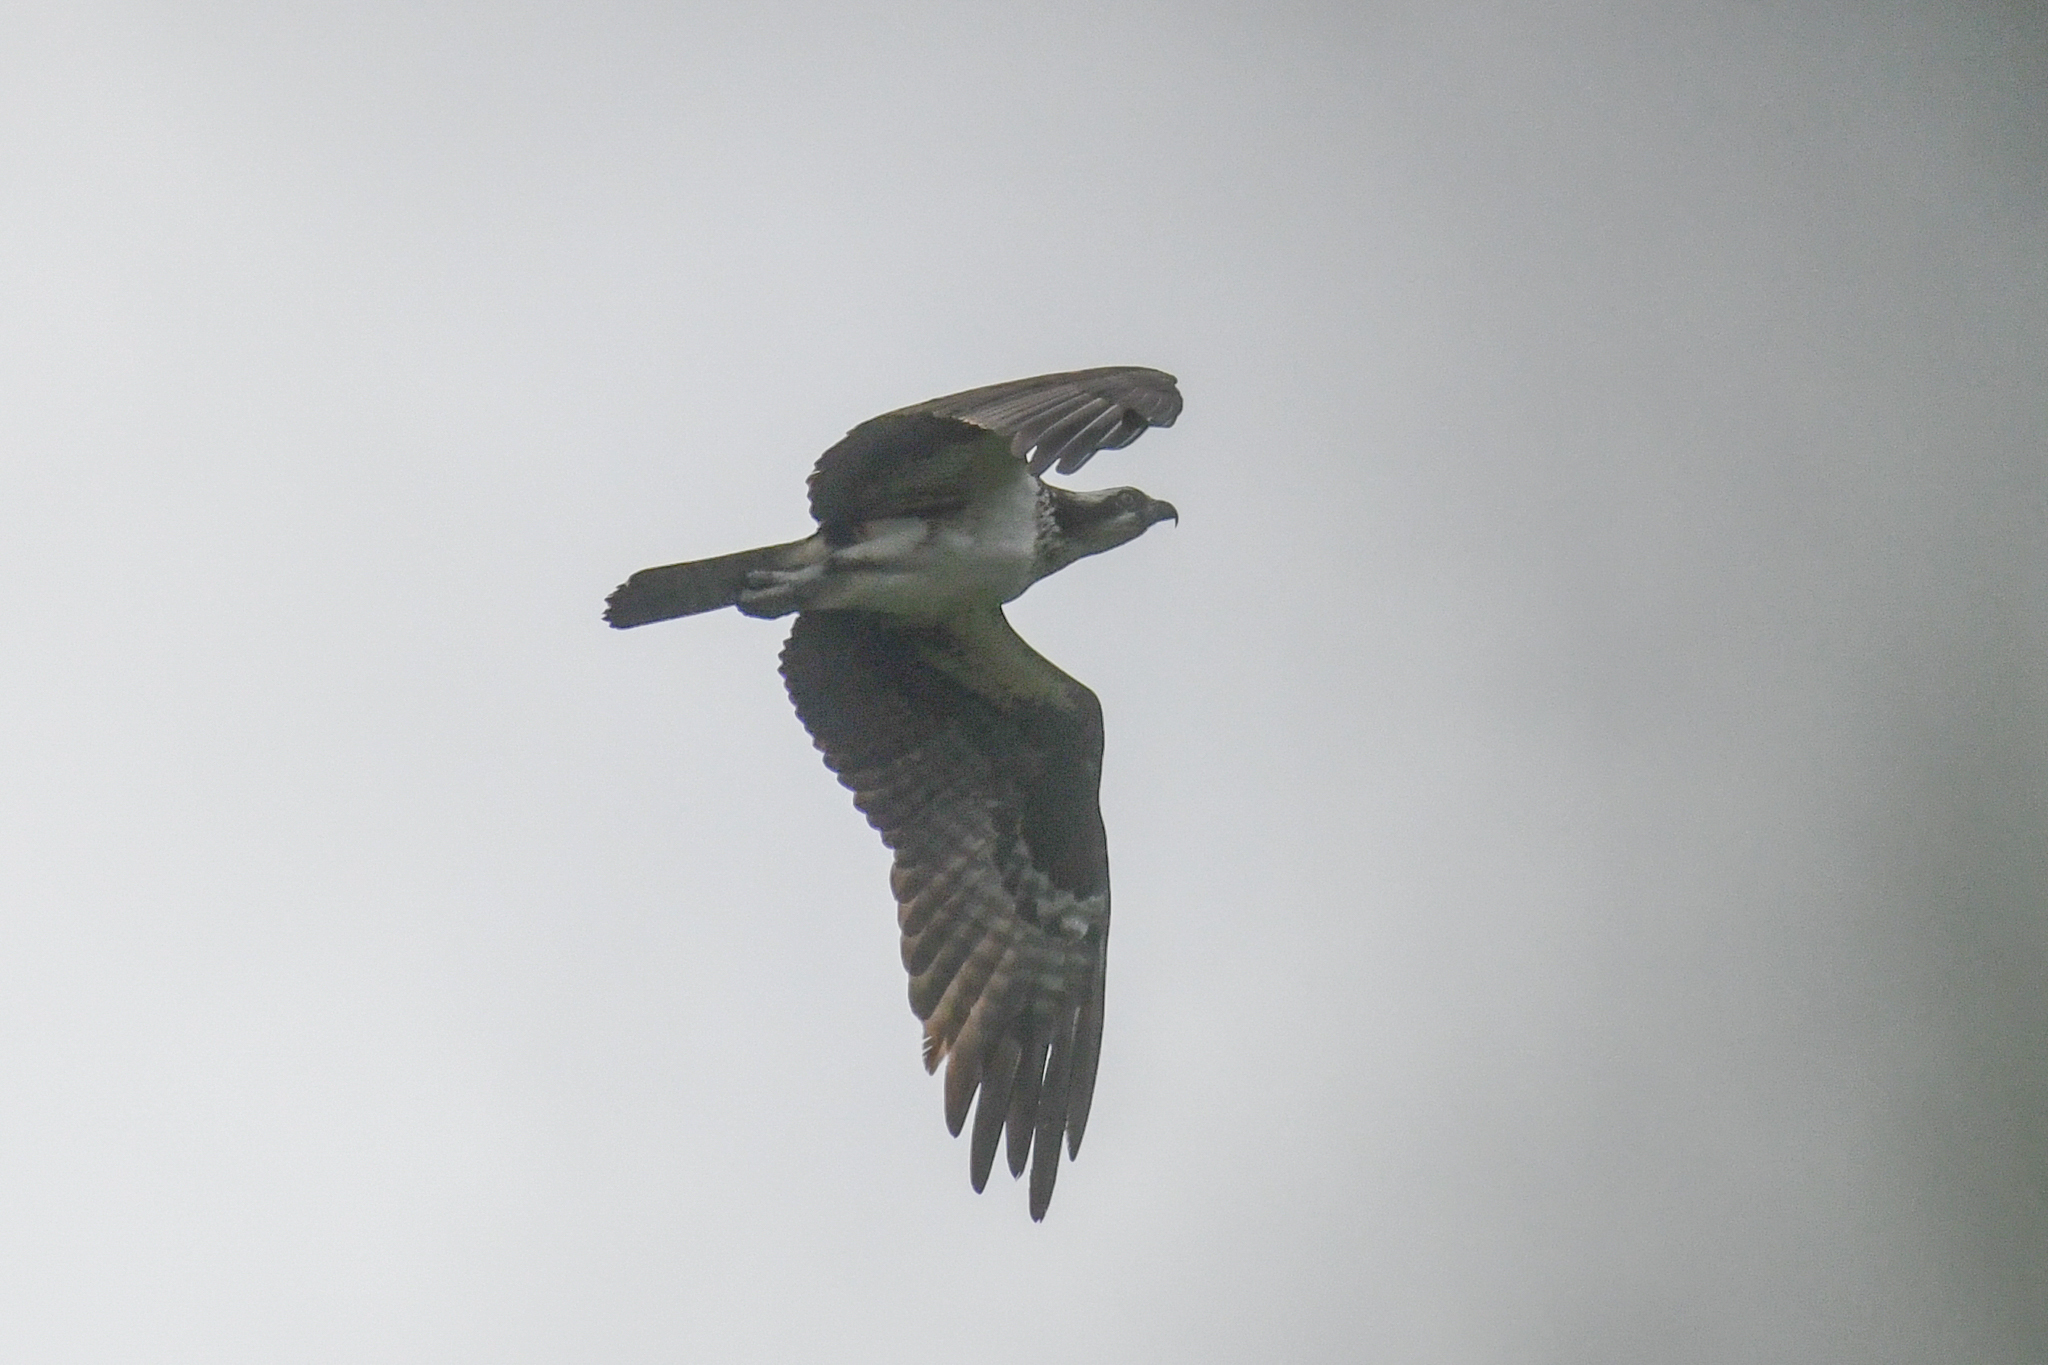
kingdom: Animalia
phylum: Chordata
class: Aves
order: Accipitriformes
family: Pandionidae
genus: Pandion
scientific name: Pandion haliaetus
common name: Osprey
